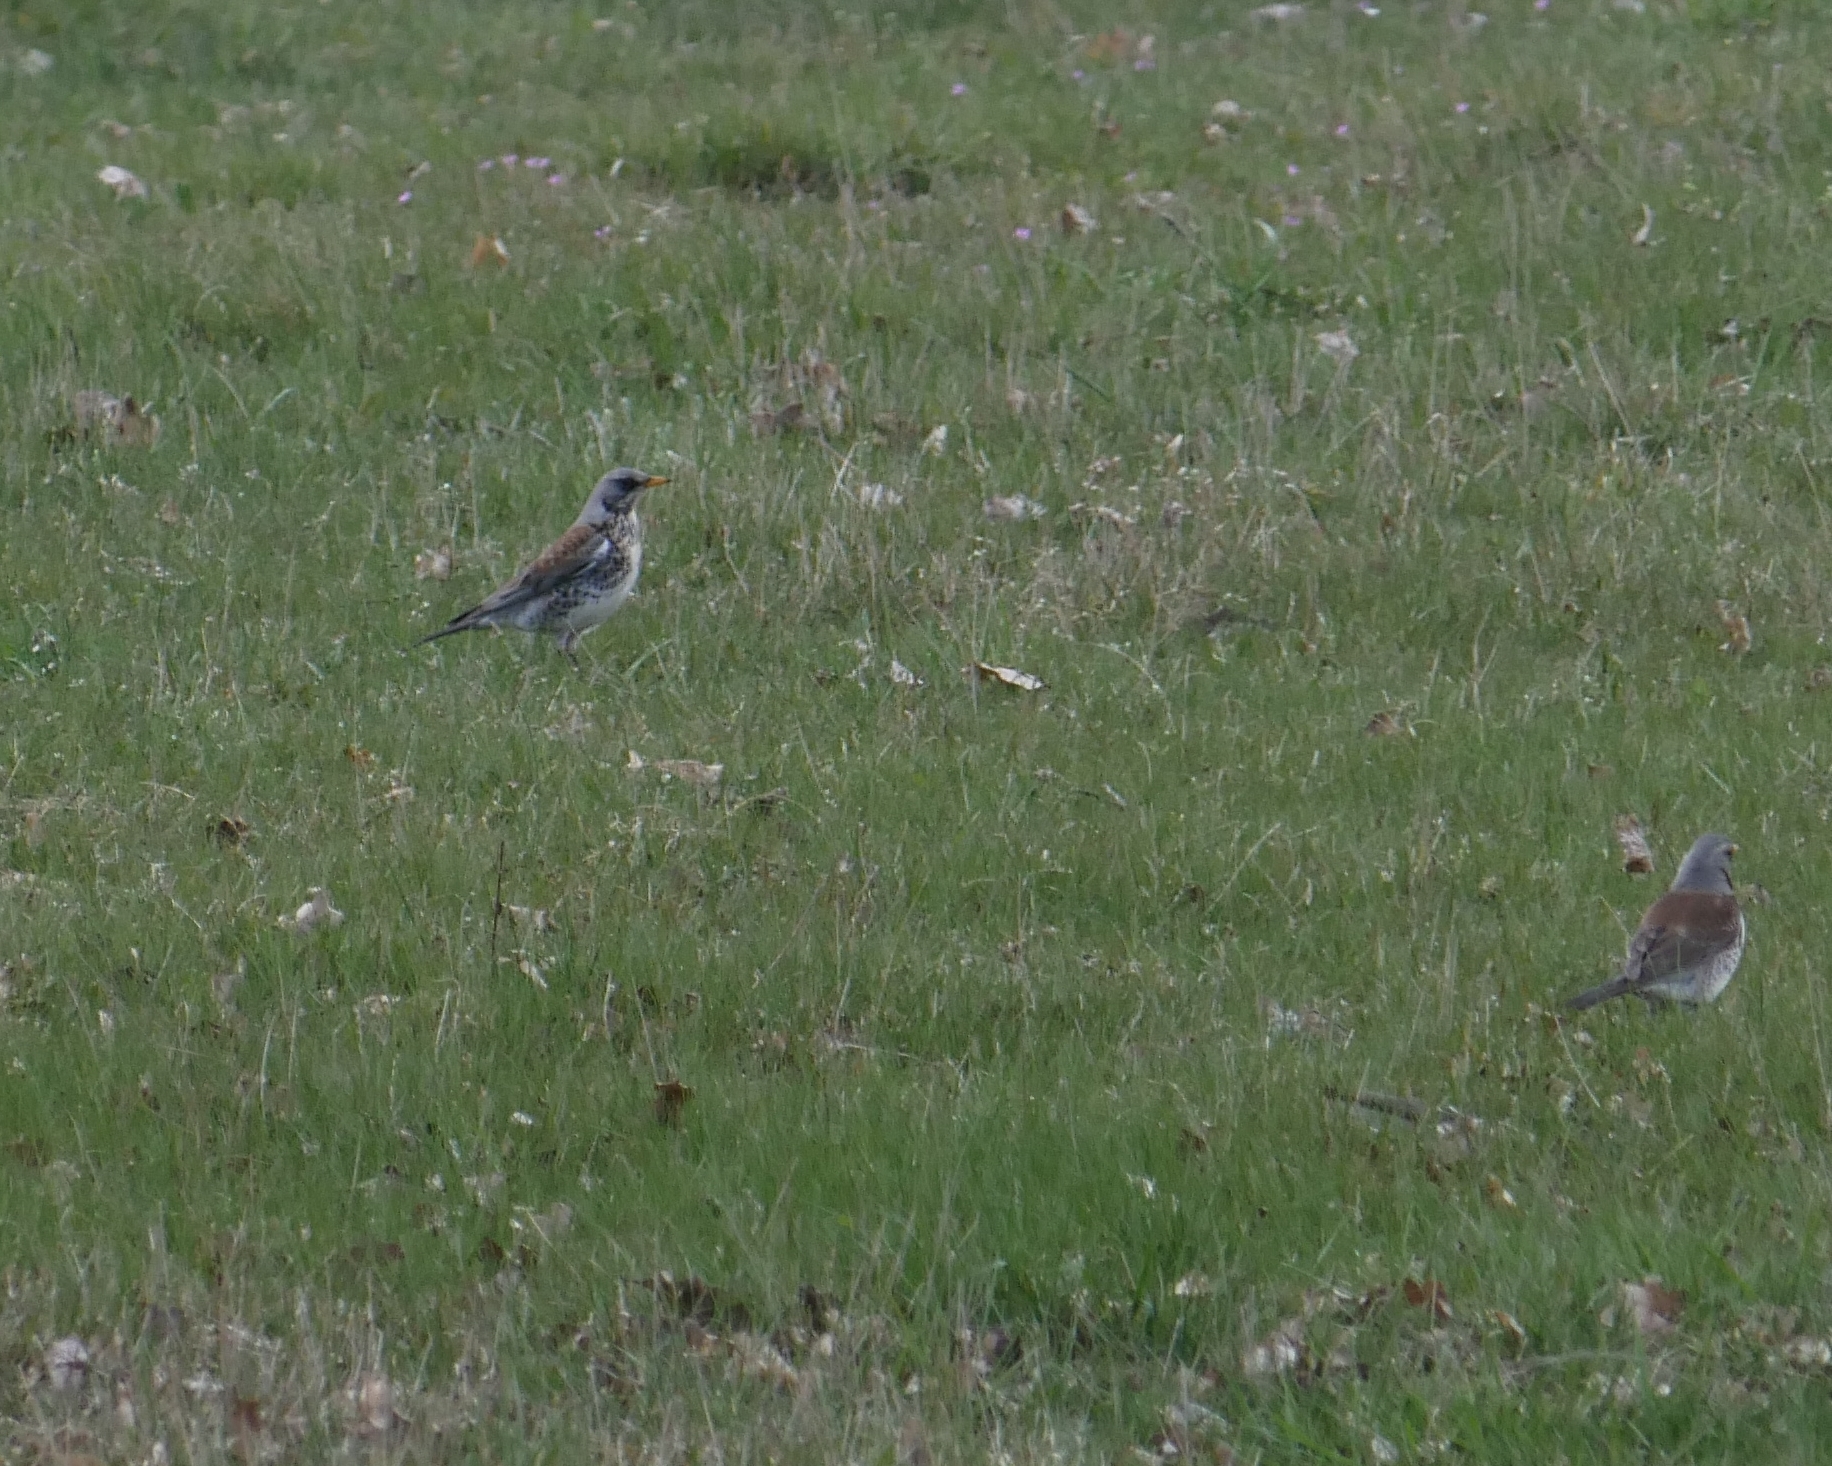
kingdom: Animalia
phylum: Chordata
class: Aves
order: Passeriformes
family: Turdidae
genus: Turdus
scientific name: Turdus pilaris
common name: Fieldfare
